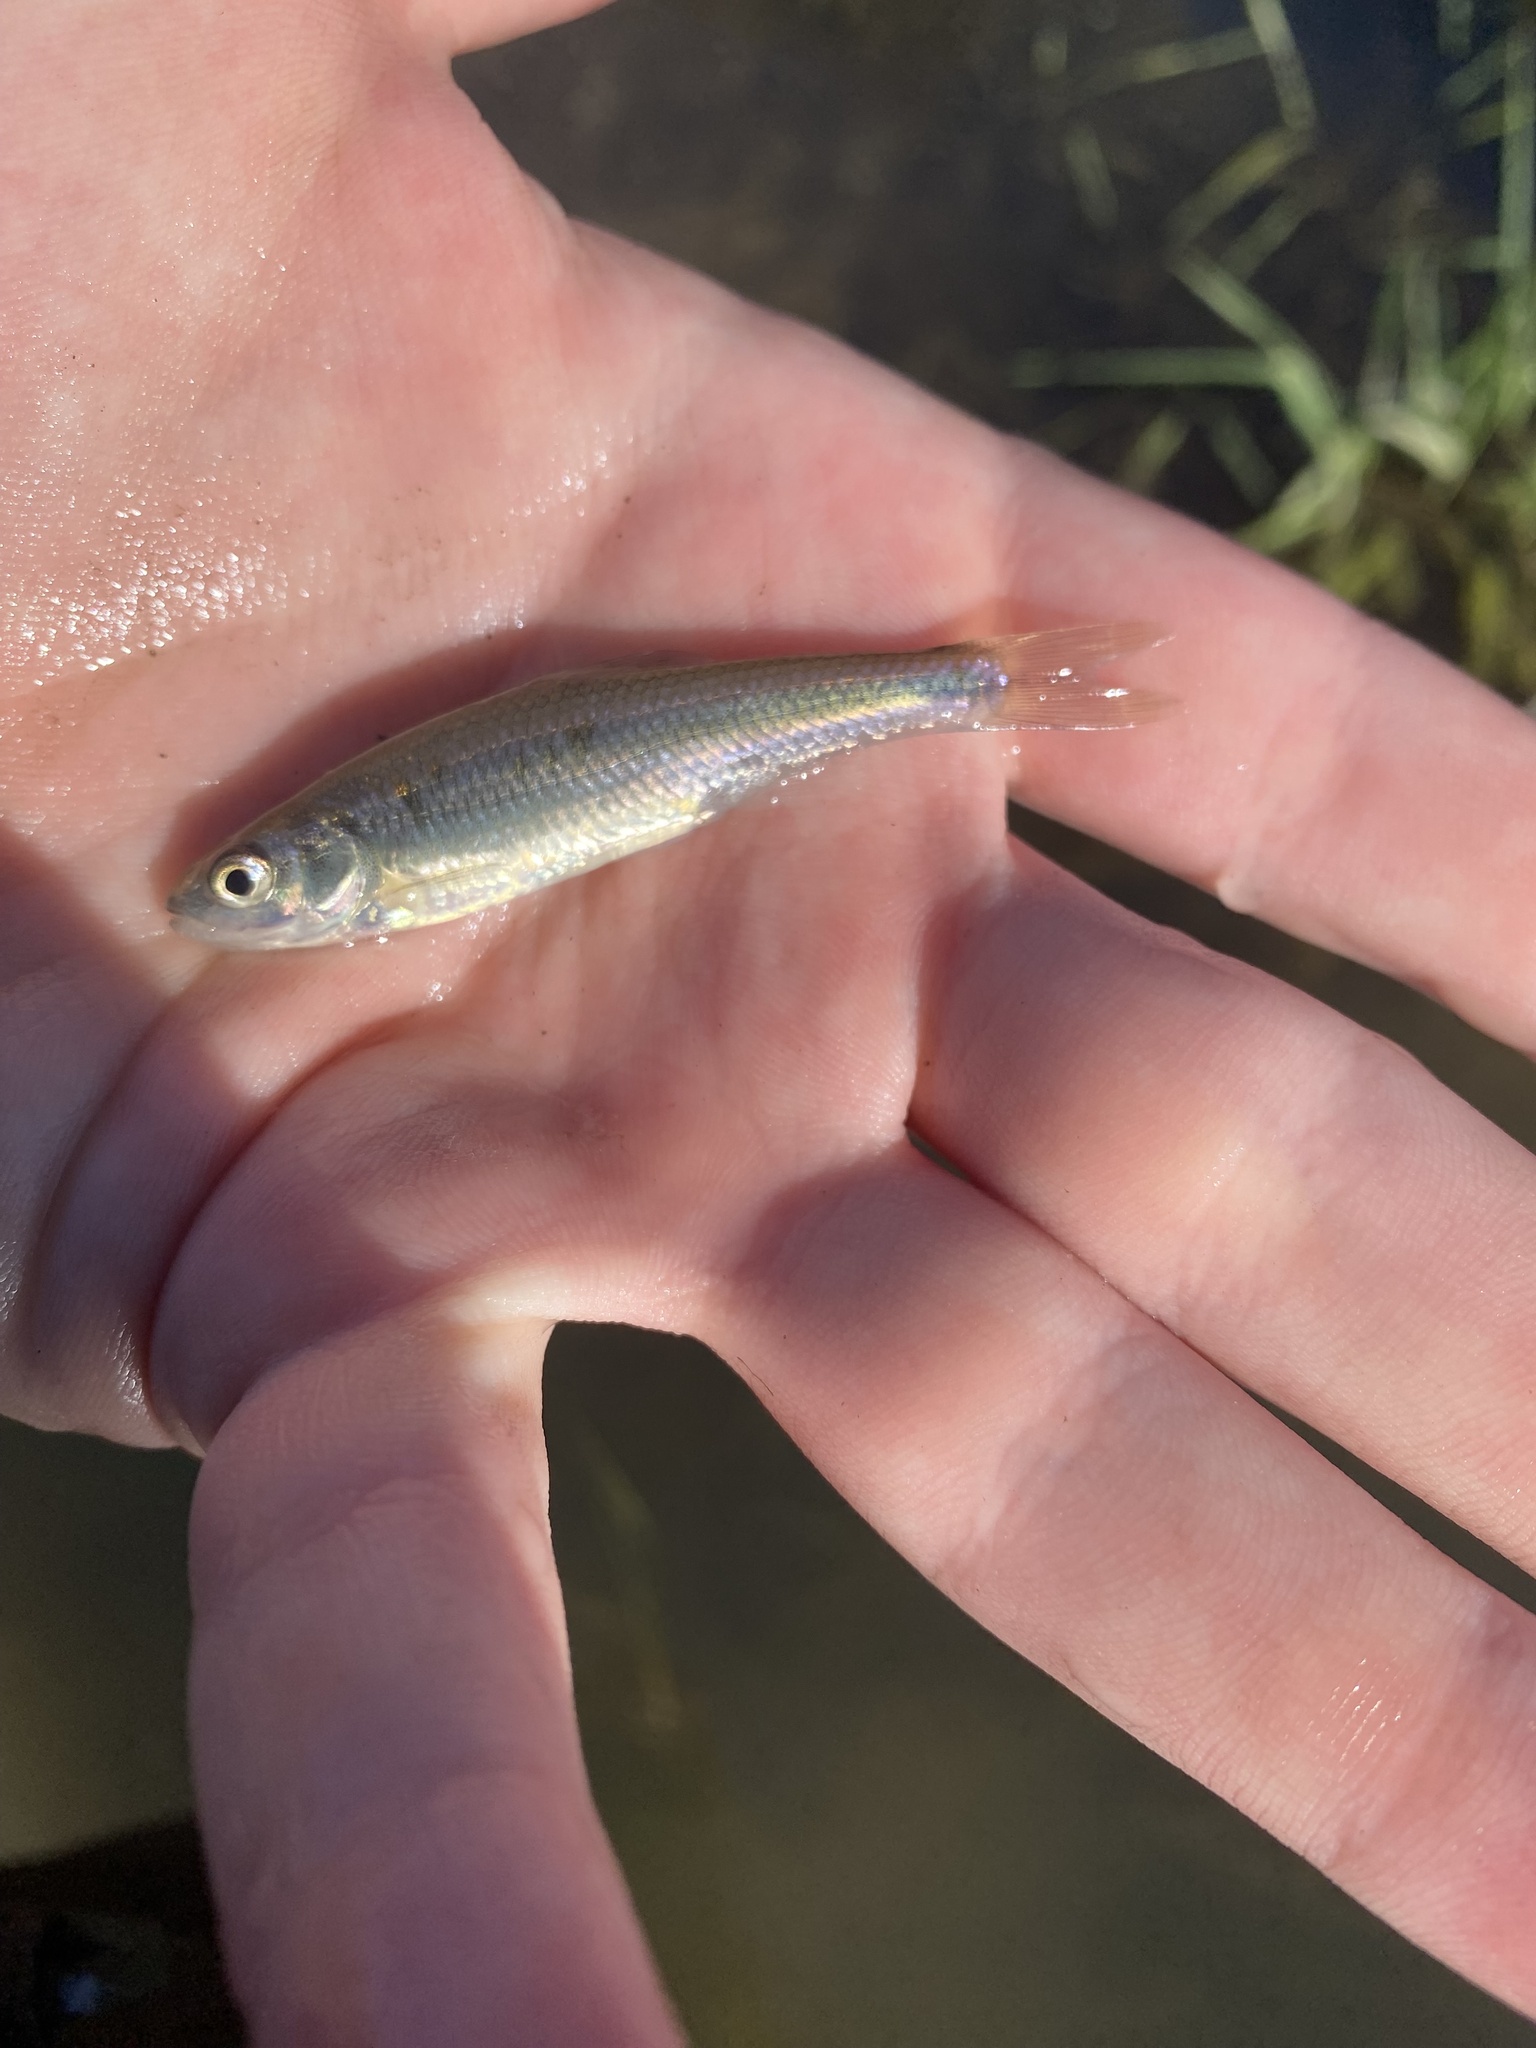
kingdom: Animalia
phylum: Chordata
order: Cypriniformes
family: Cyprinidae
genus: Luxilus
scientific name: Luxilus cornutus
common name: Common shiner
